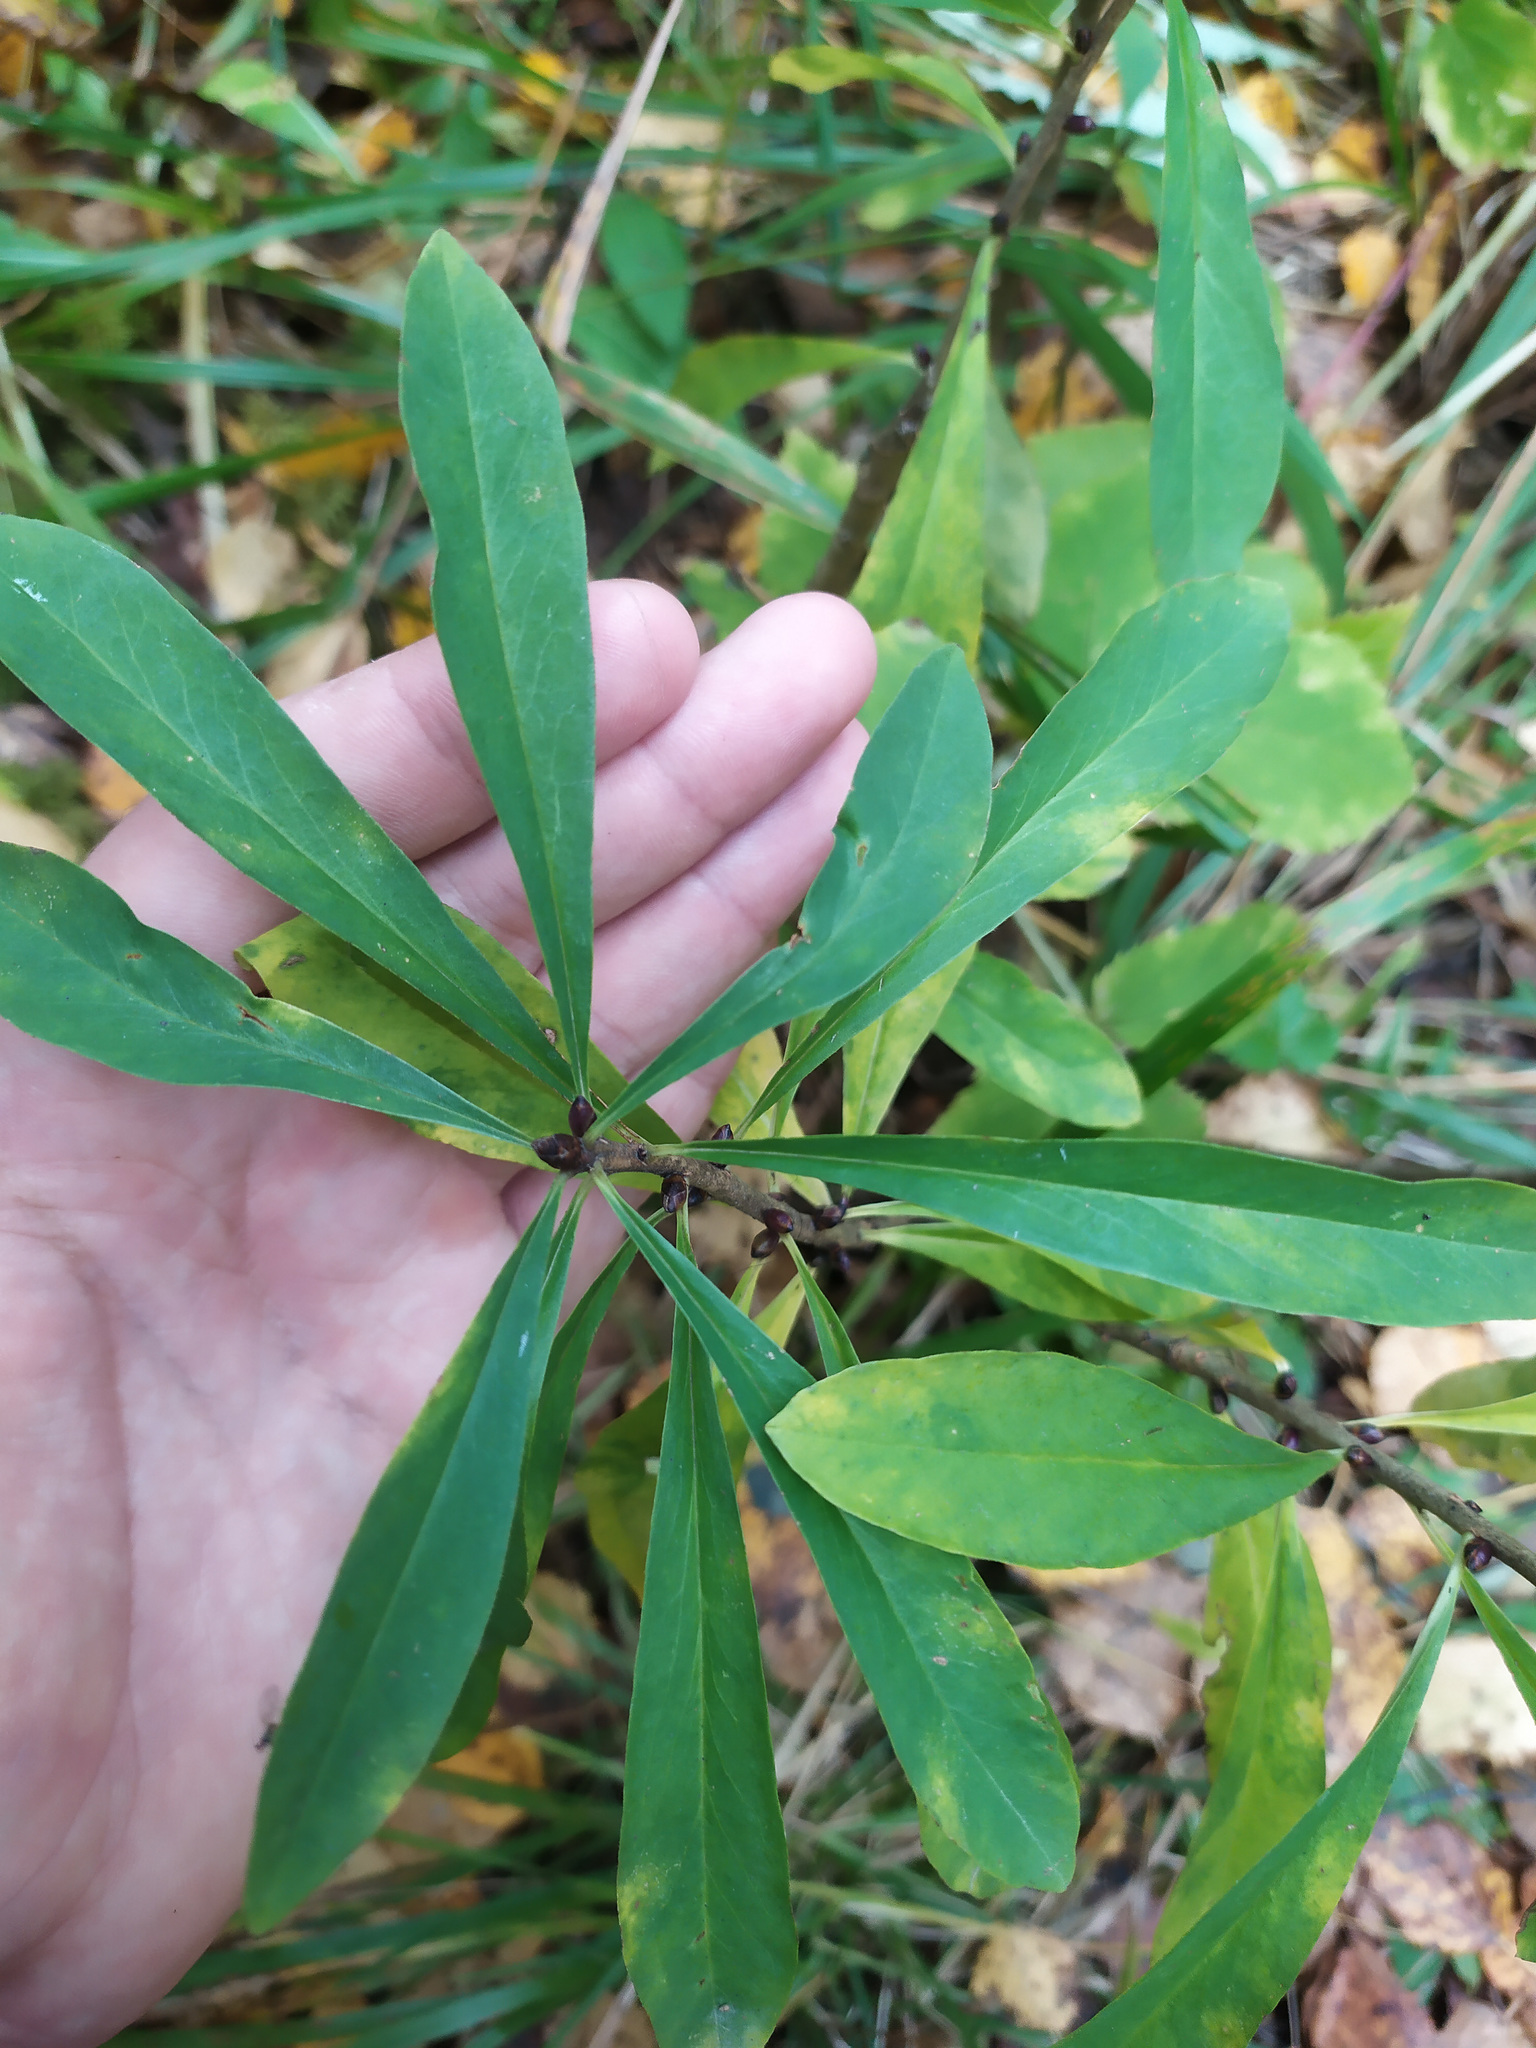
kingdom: Plantae
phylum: Tracheophyta
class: Magnoliopsida
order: Malvales
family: Thymelaeaceae
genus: Daphne
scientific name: Daphne mezereum
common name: Mezereon
